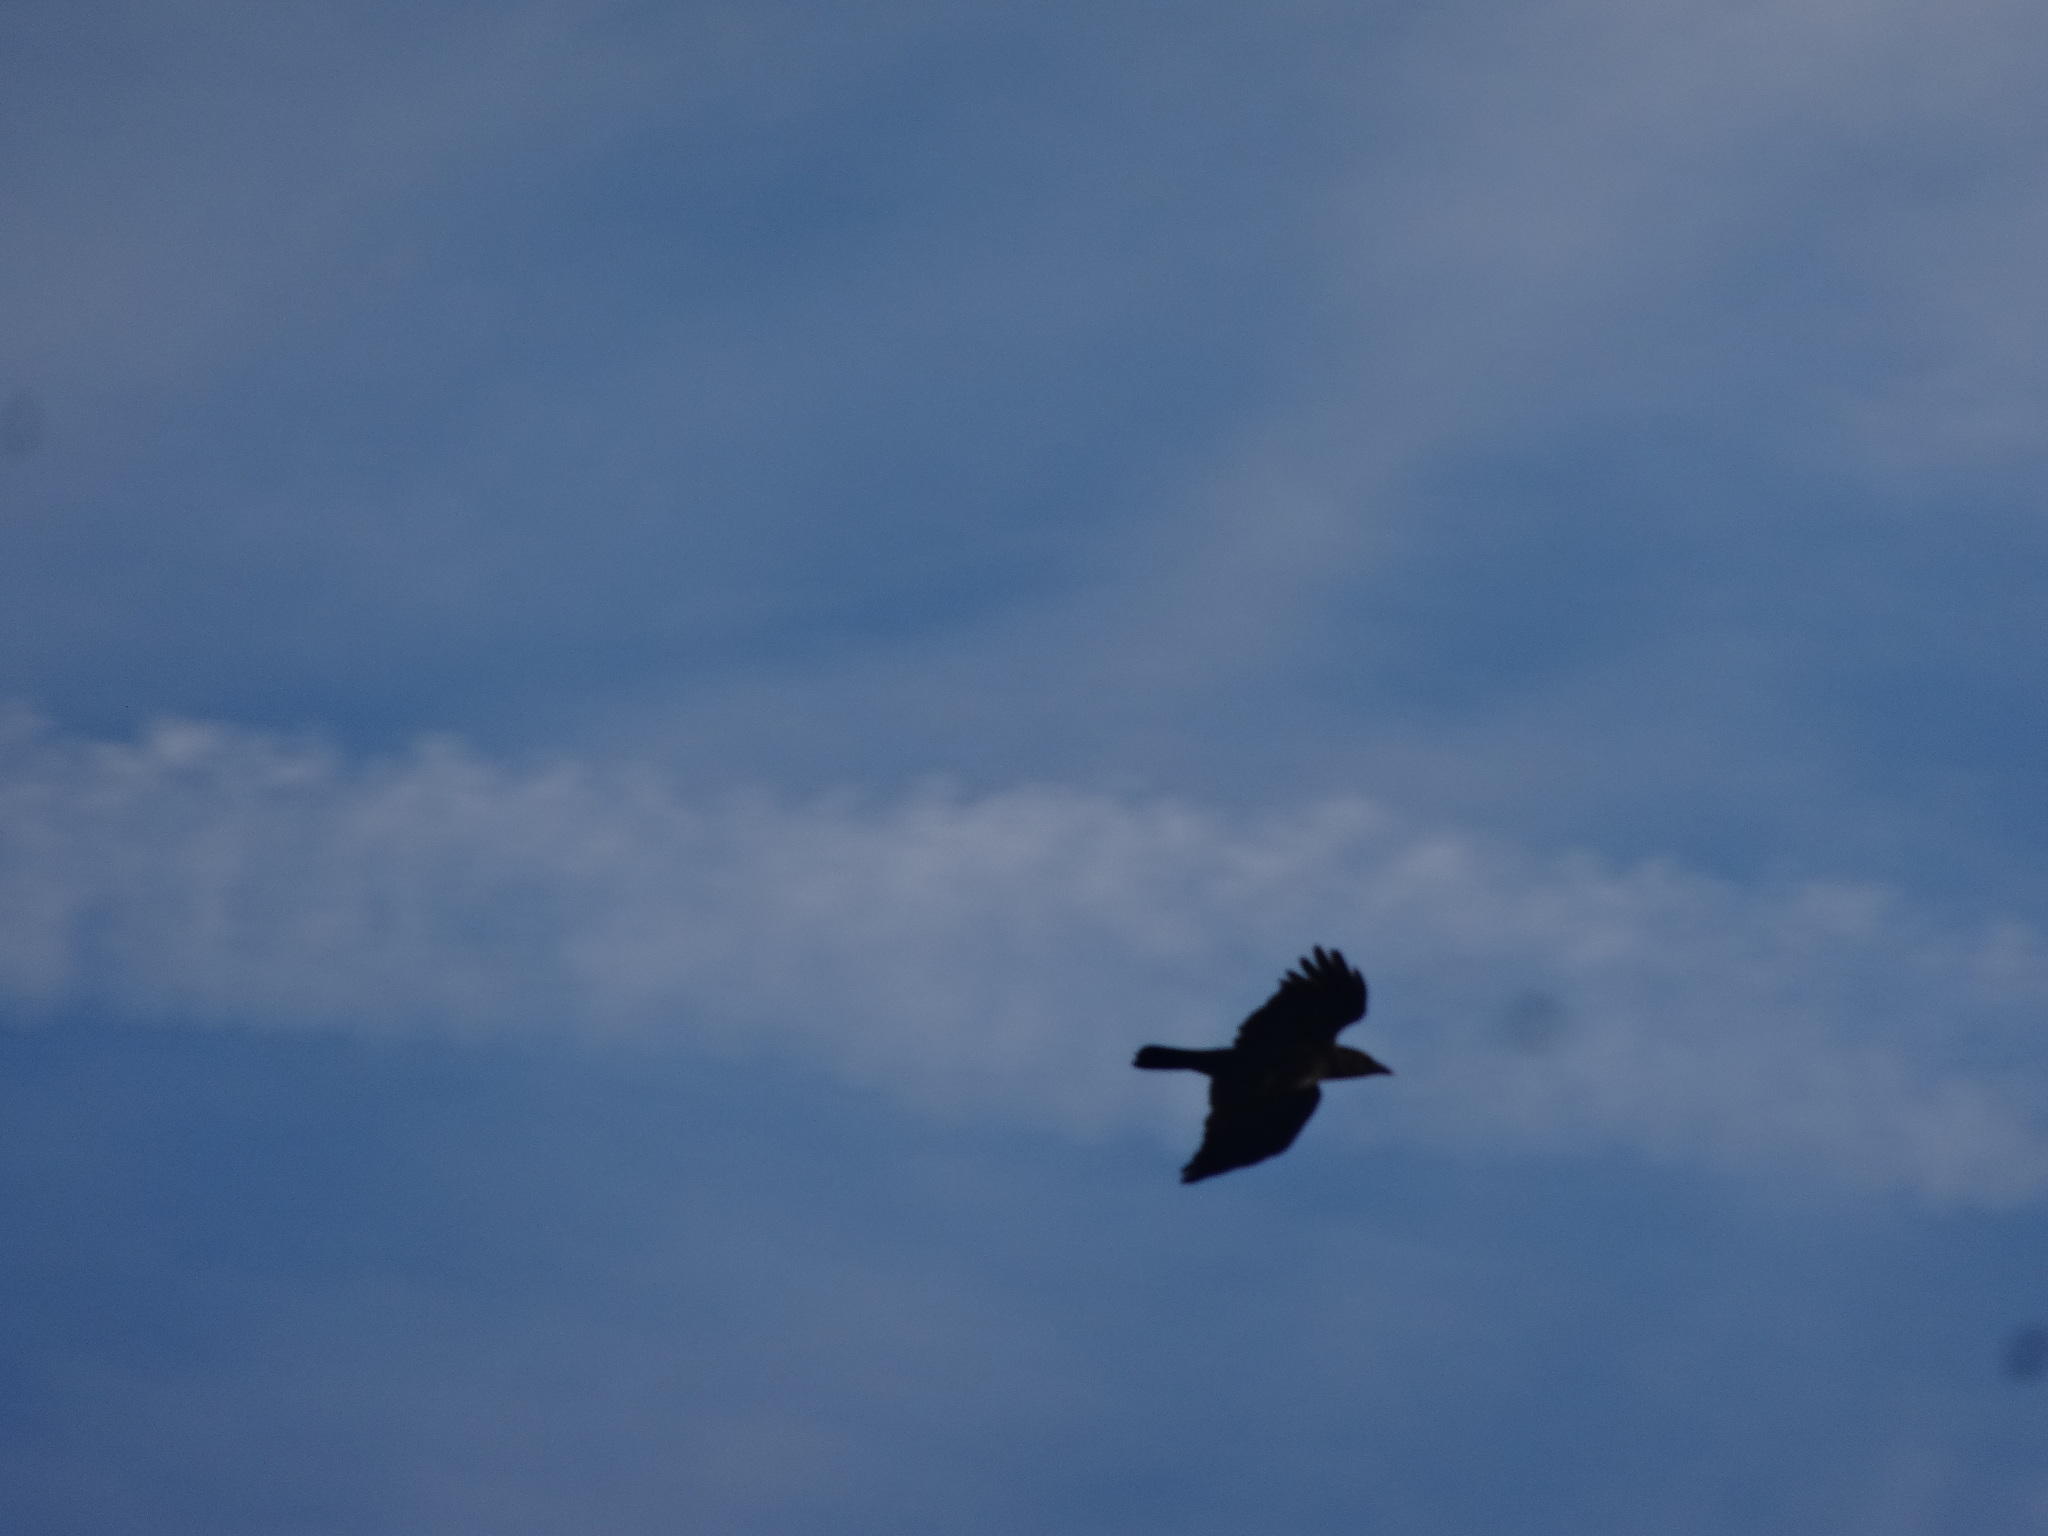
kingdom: Animalia
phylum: Chordata
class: Aves
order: Passeriformes
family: Corvidae
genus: Corvus
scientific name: Corvus corone
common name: Carrion crow
